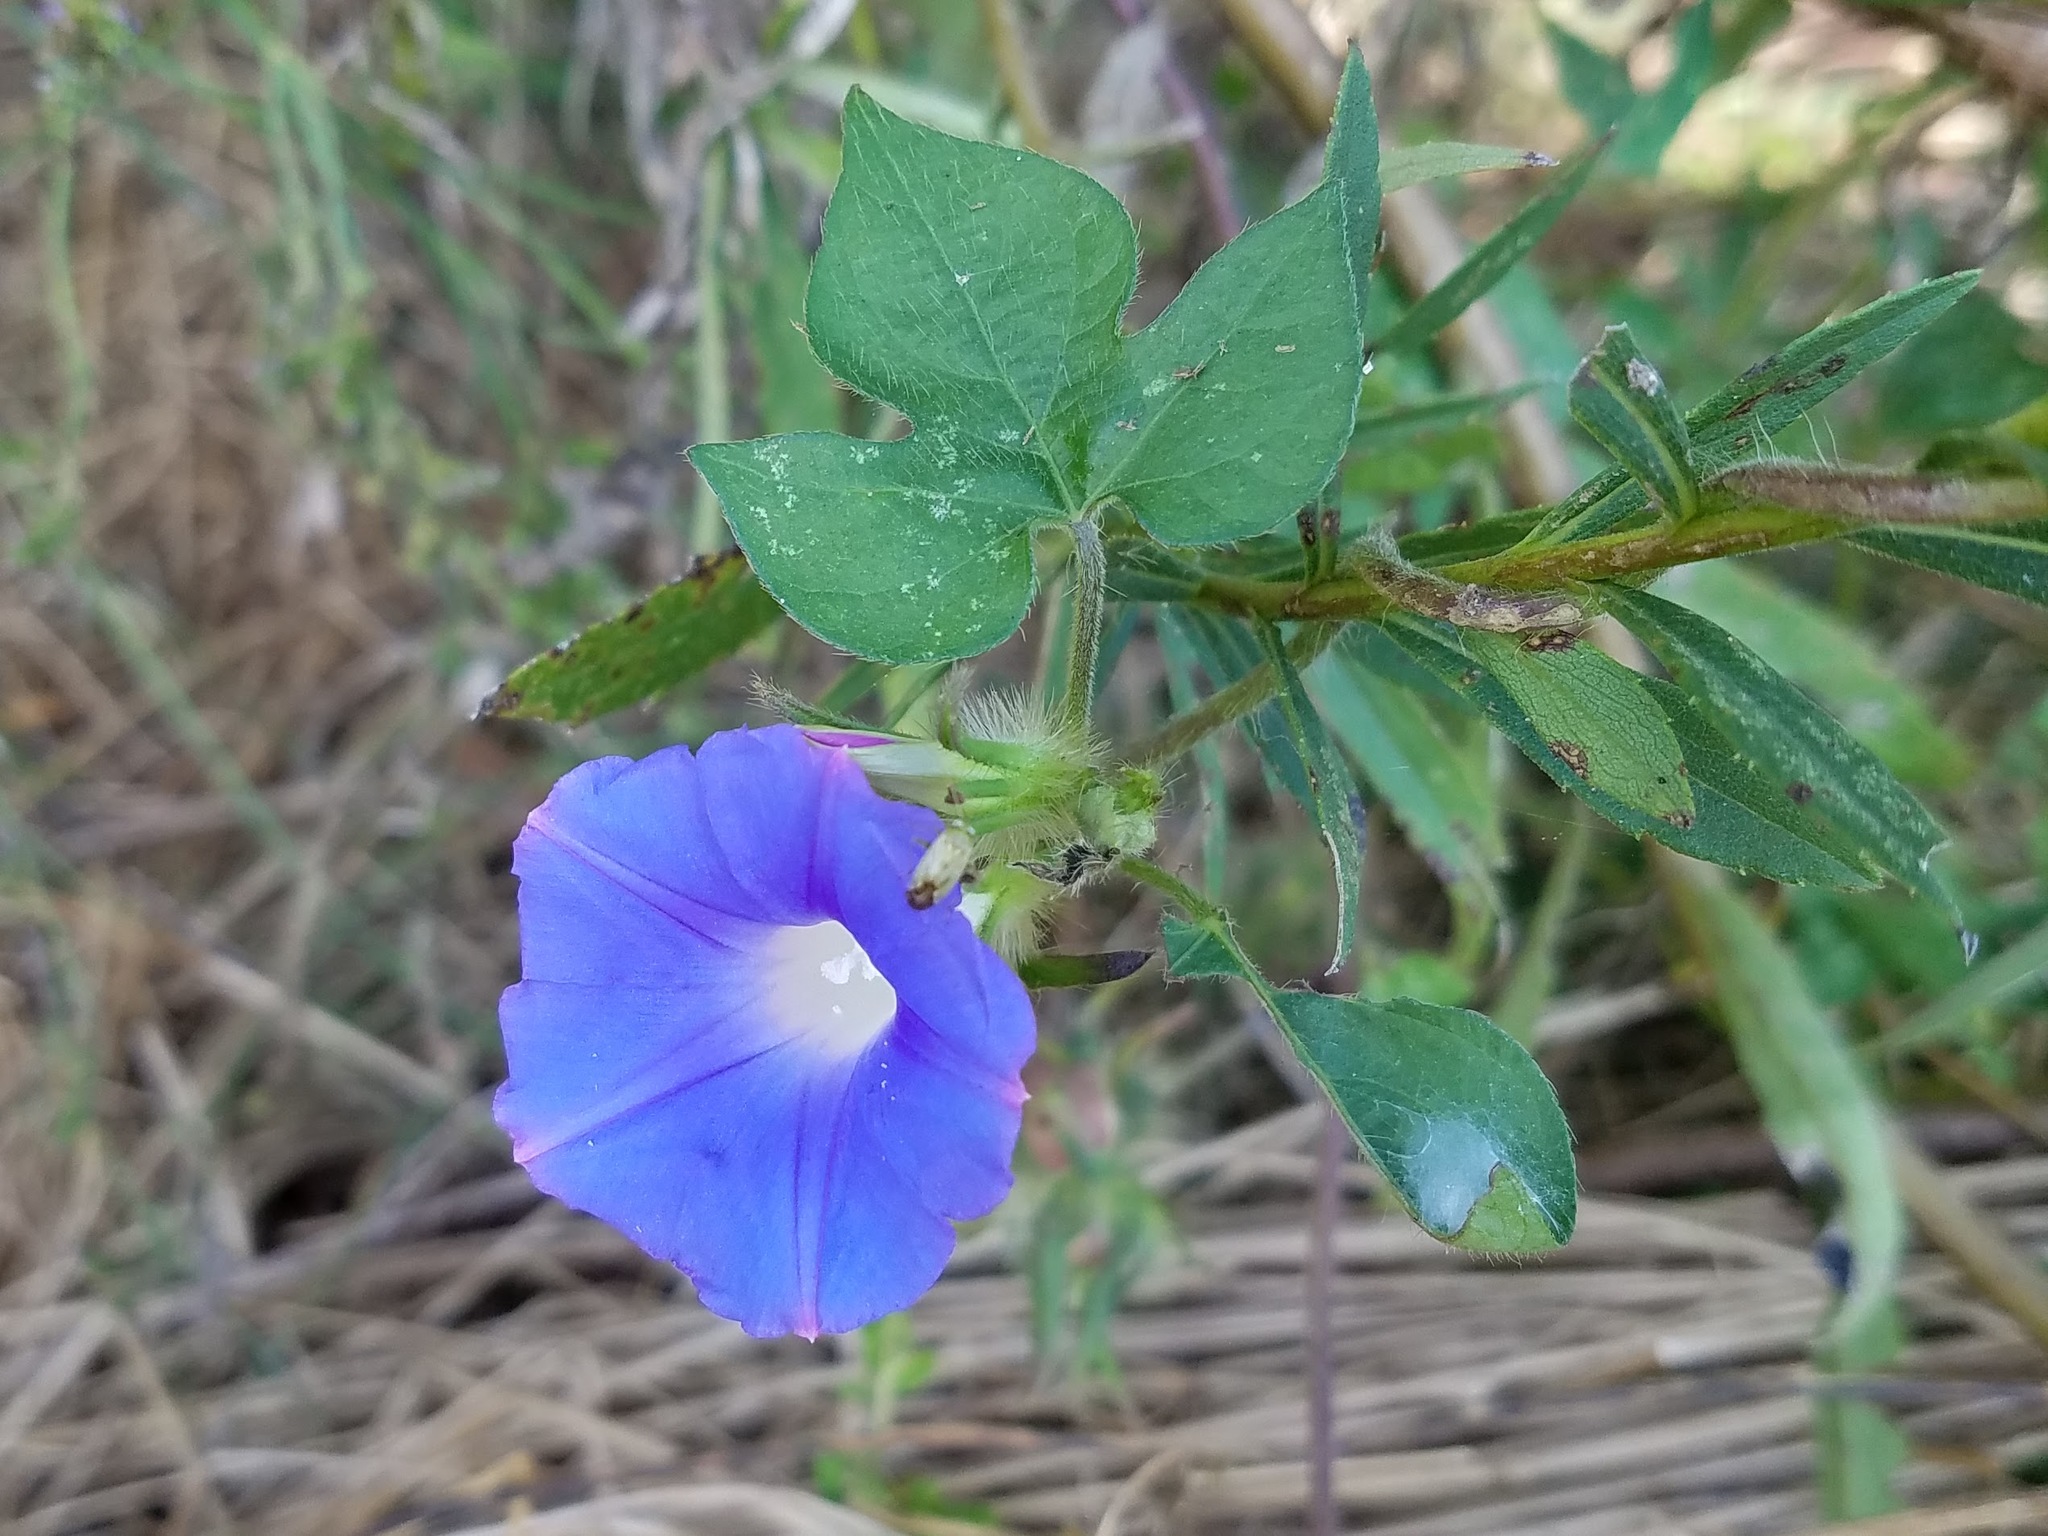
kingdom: Plantae
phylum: Tracheophyta
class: Magnoliopsida
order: Solanales
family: Convolvulaceae
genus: Ipomoea
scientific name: Ipomoea hederacea
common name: Ivy-leaved morning-glory
